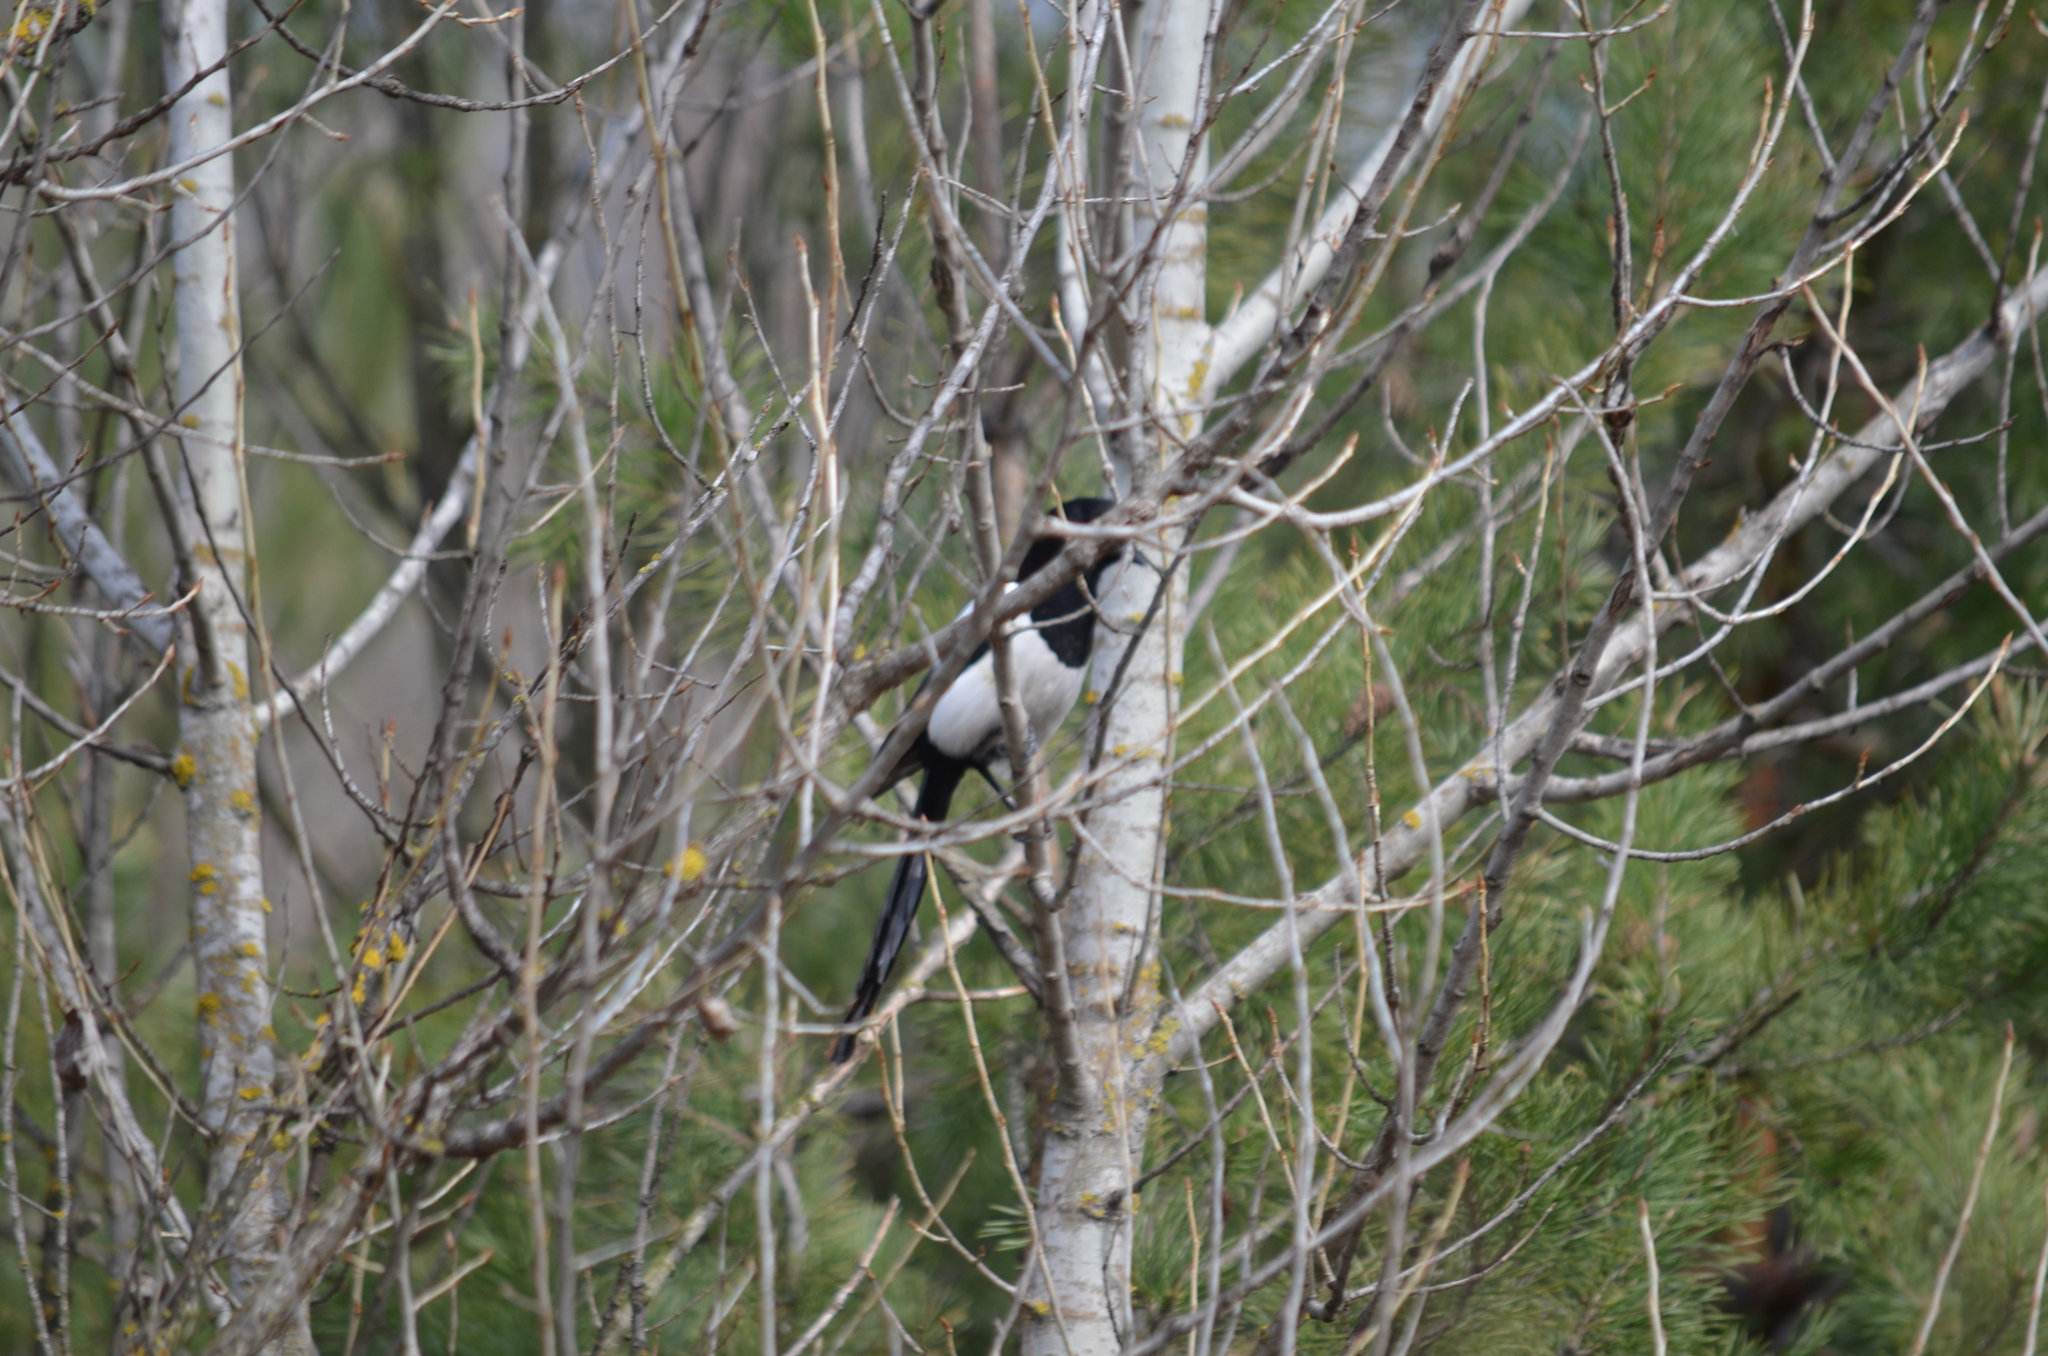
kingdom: Animalia
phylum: Chordata
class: Aves
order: Passeriformes
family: Corvidae
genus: Pica
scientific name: Pica pica
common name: Eurasian magpie
